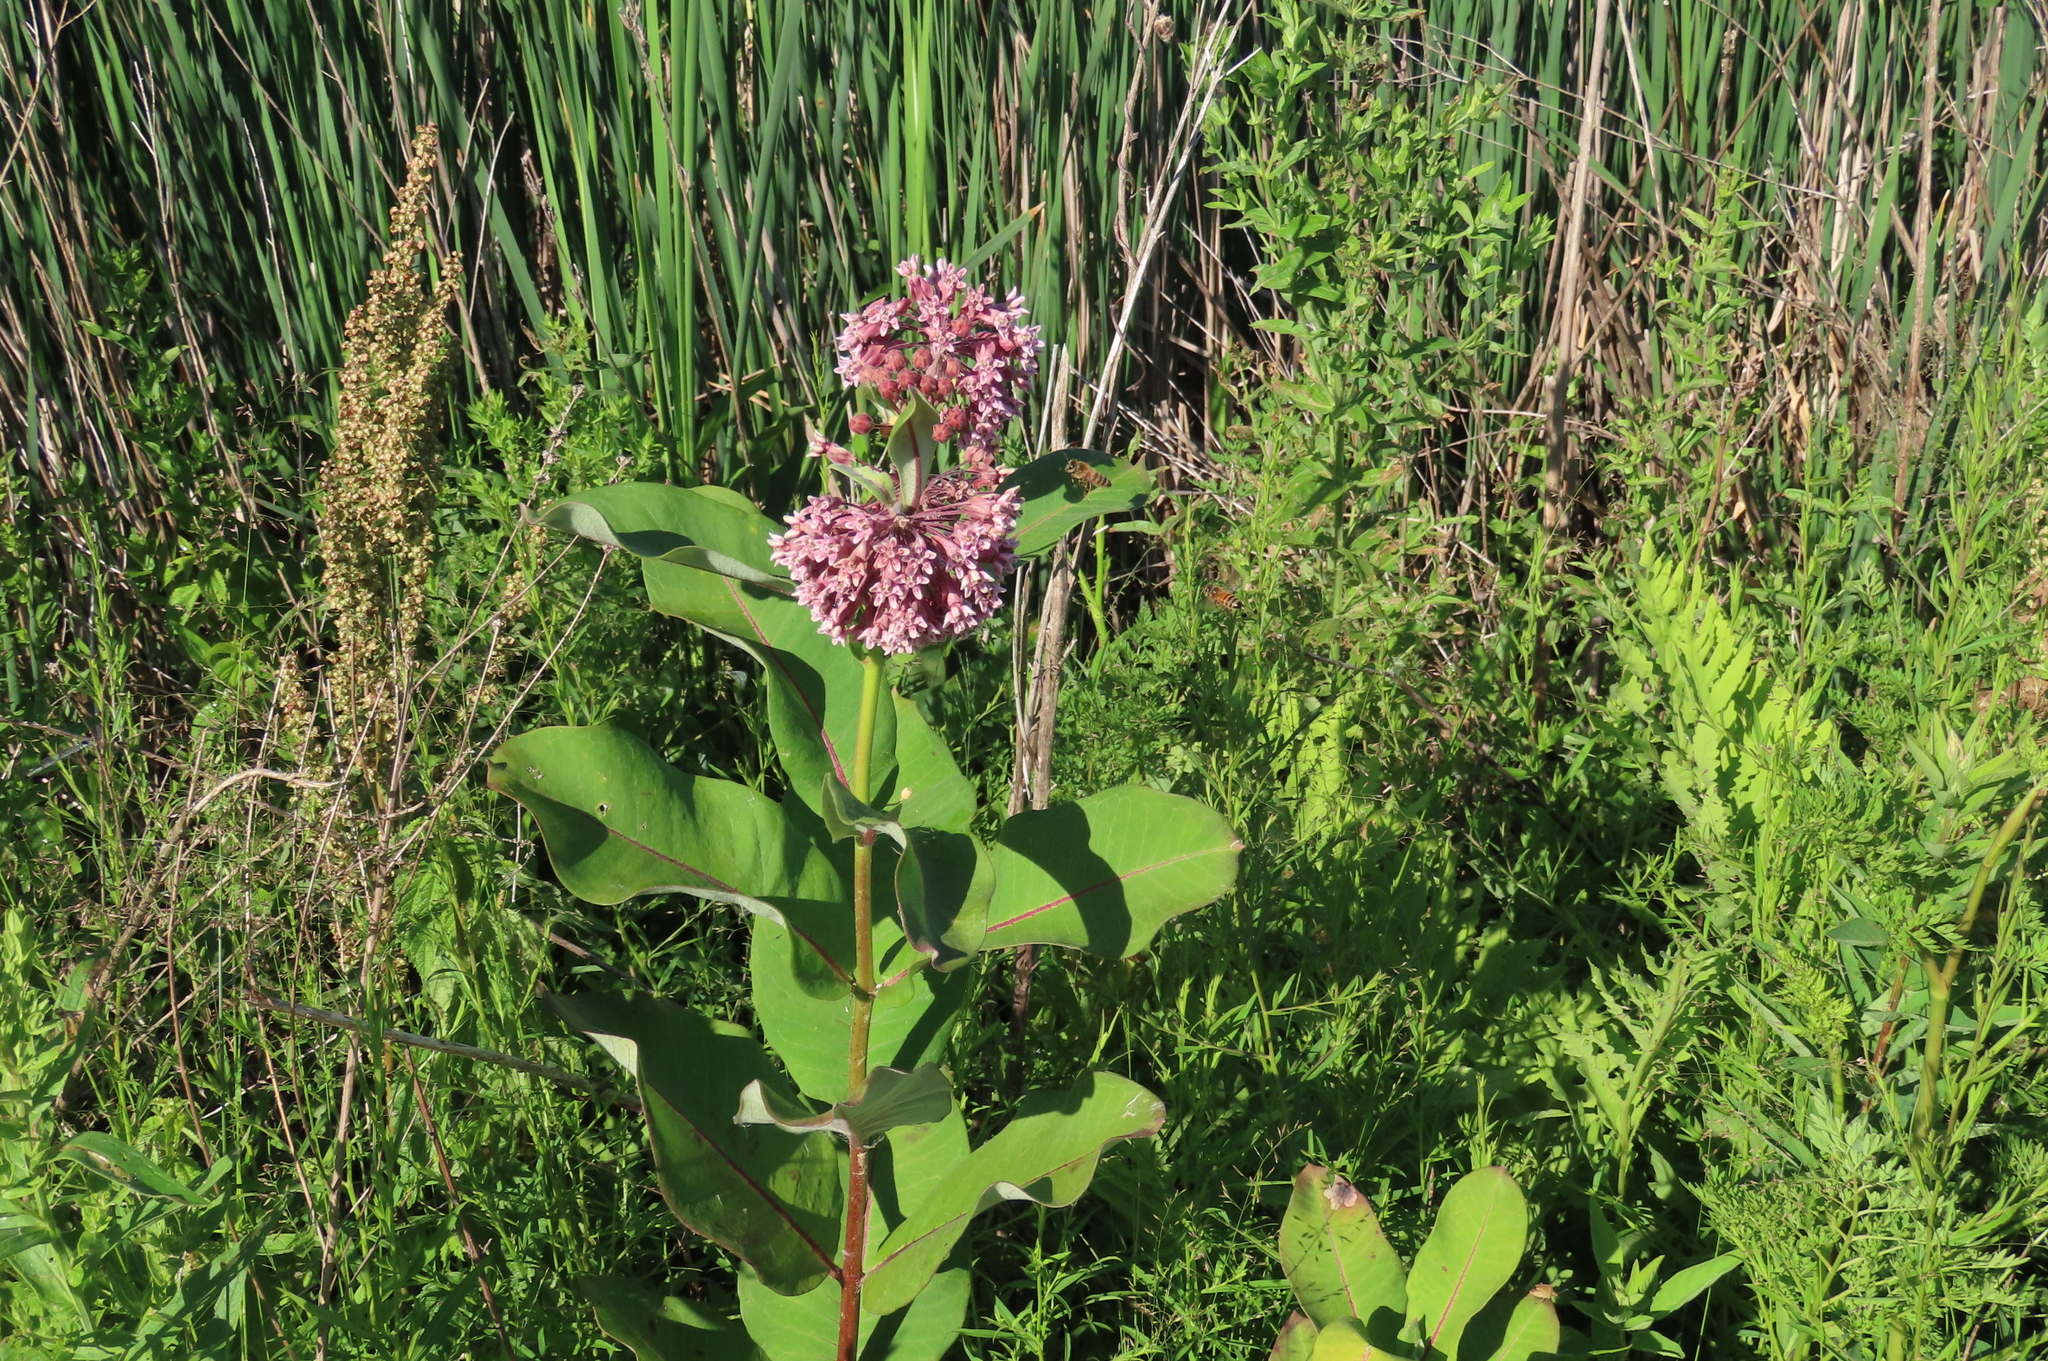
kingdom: Plantae
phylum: Tracheophyta
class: Magnoliopsida
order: Gentianales
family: Apocynaceae
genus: Asclepias
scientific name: Asclepias syriaca
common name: Common milkweed
